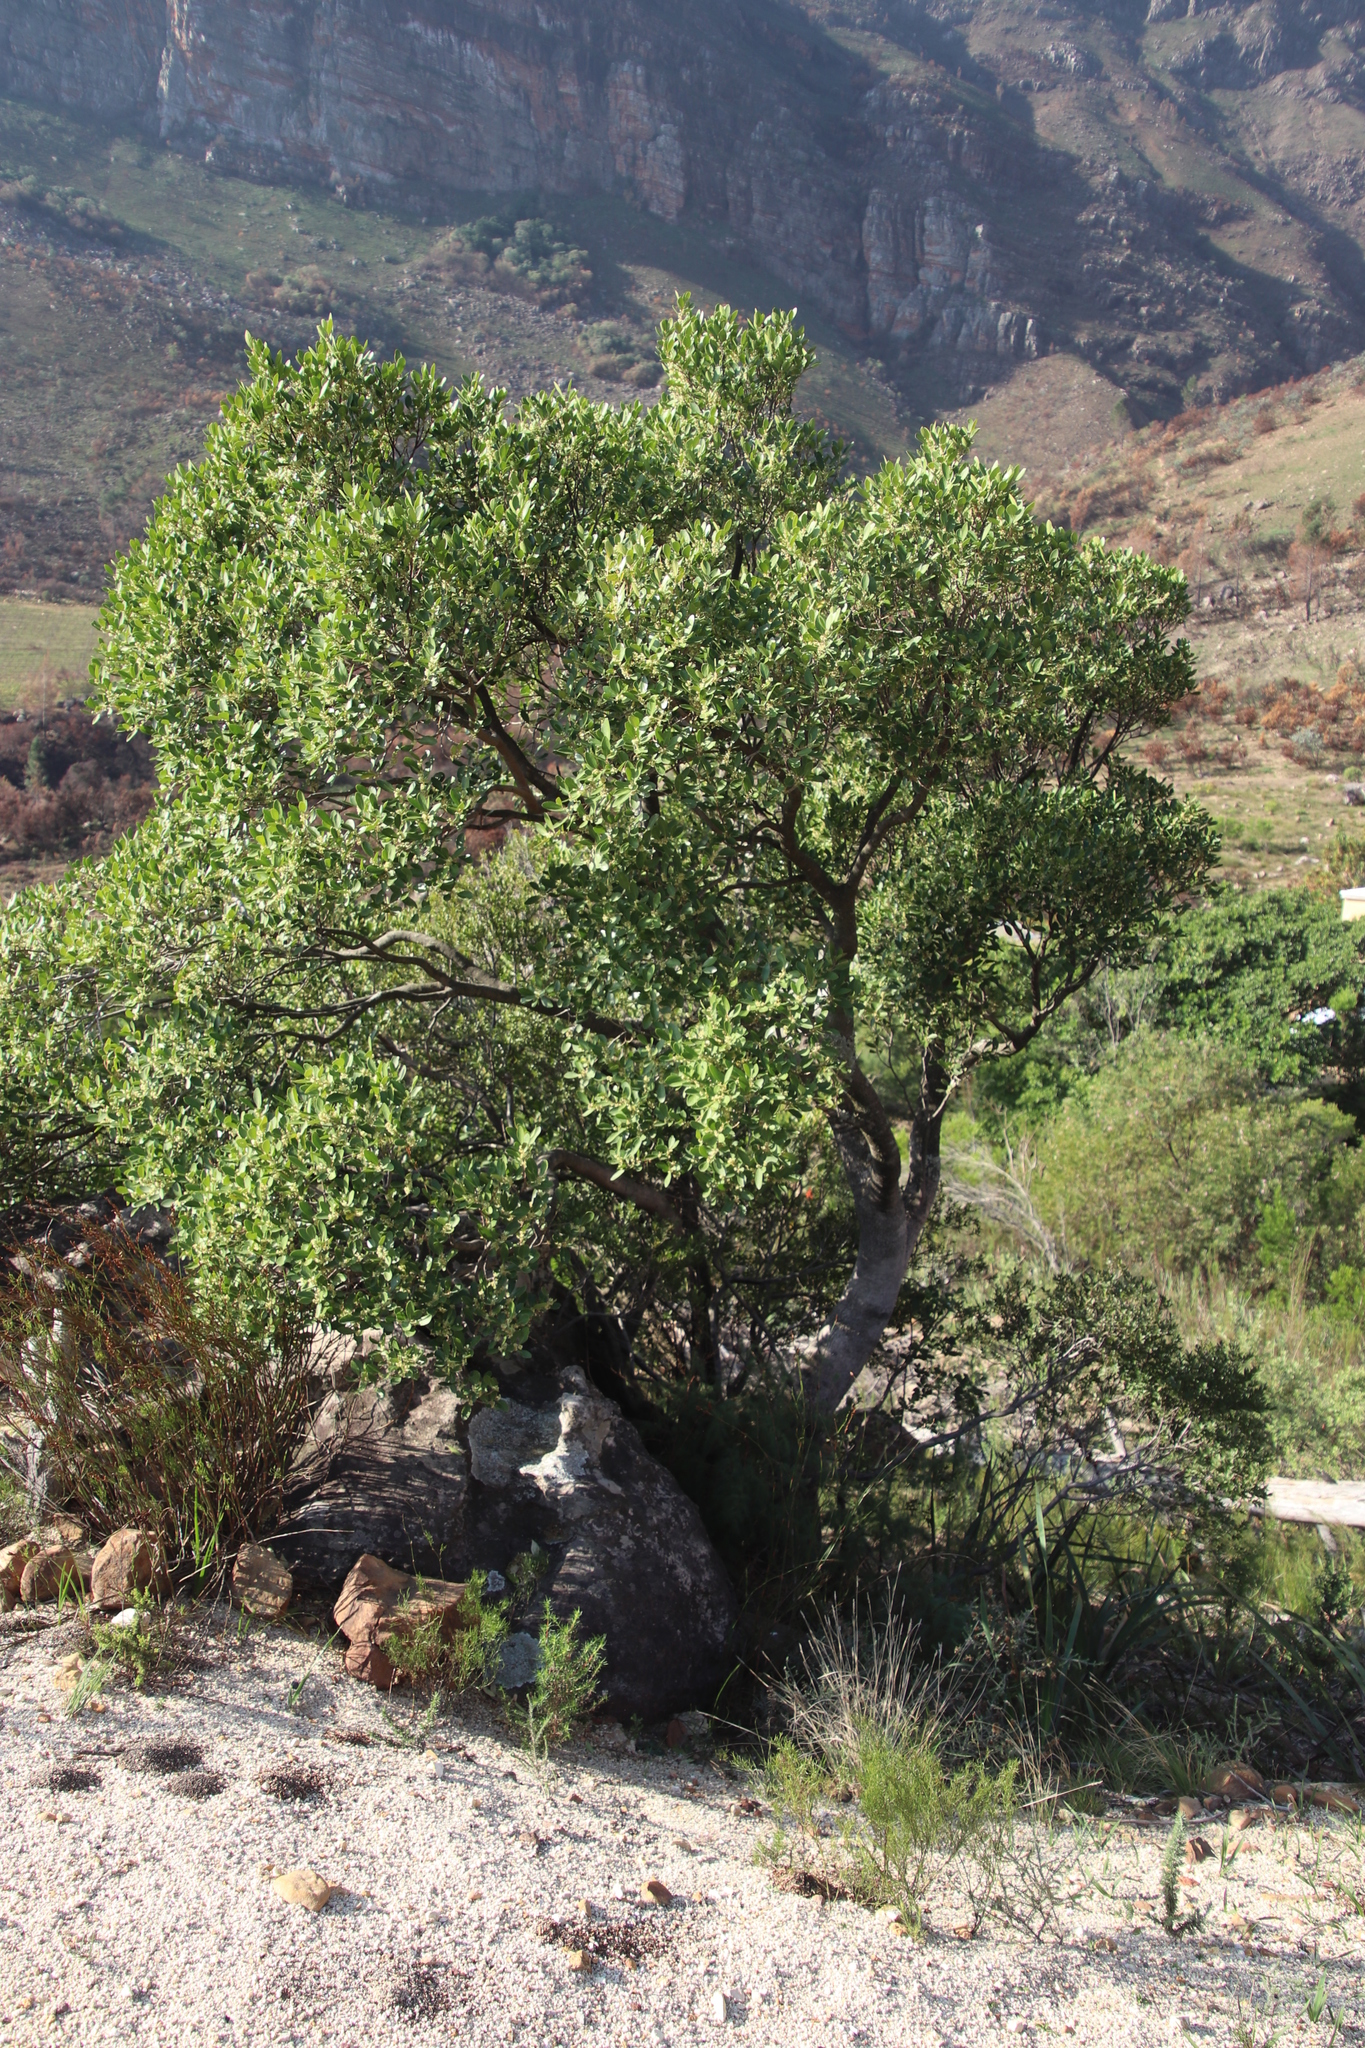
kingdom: Plantae
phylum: Tracheophyta
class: Magnoliopsida
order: Celastrales
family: Celastraceae
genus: Gymnosporia
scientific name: Gymnosporia laurina
